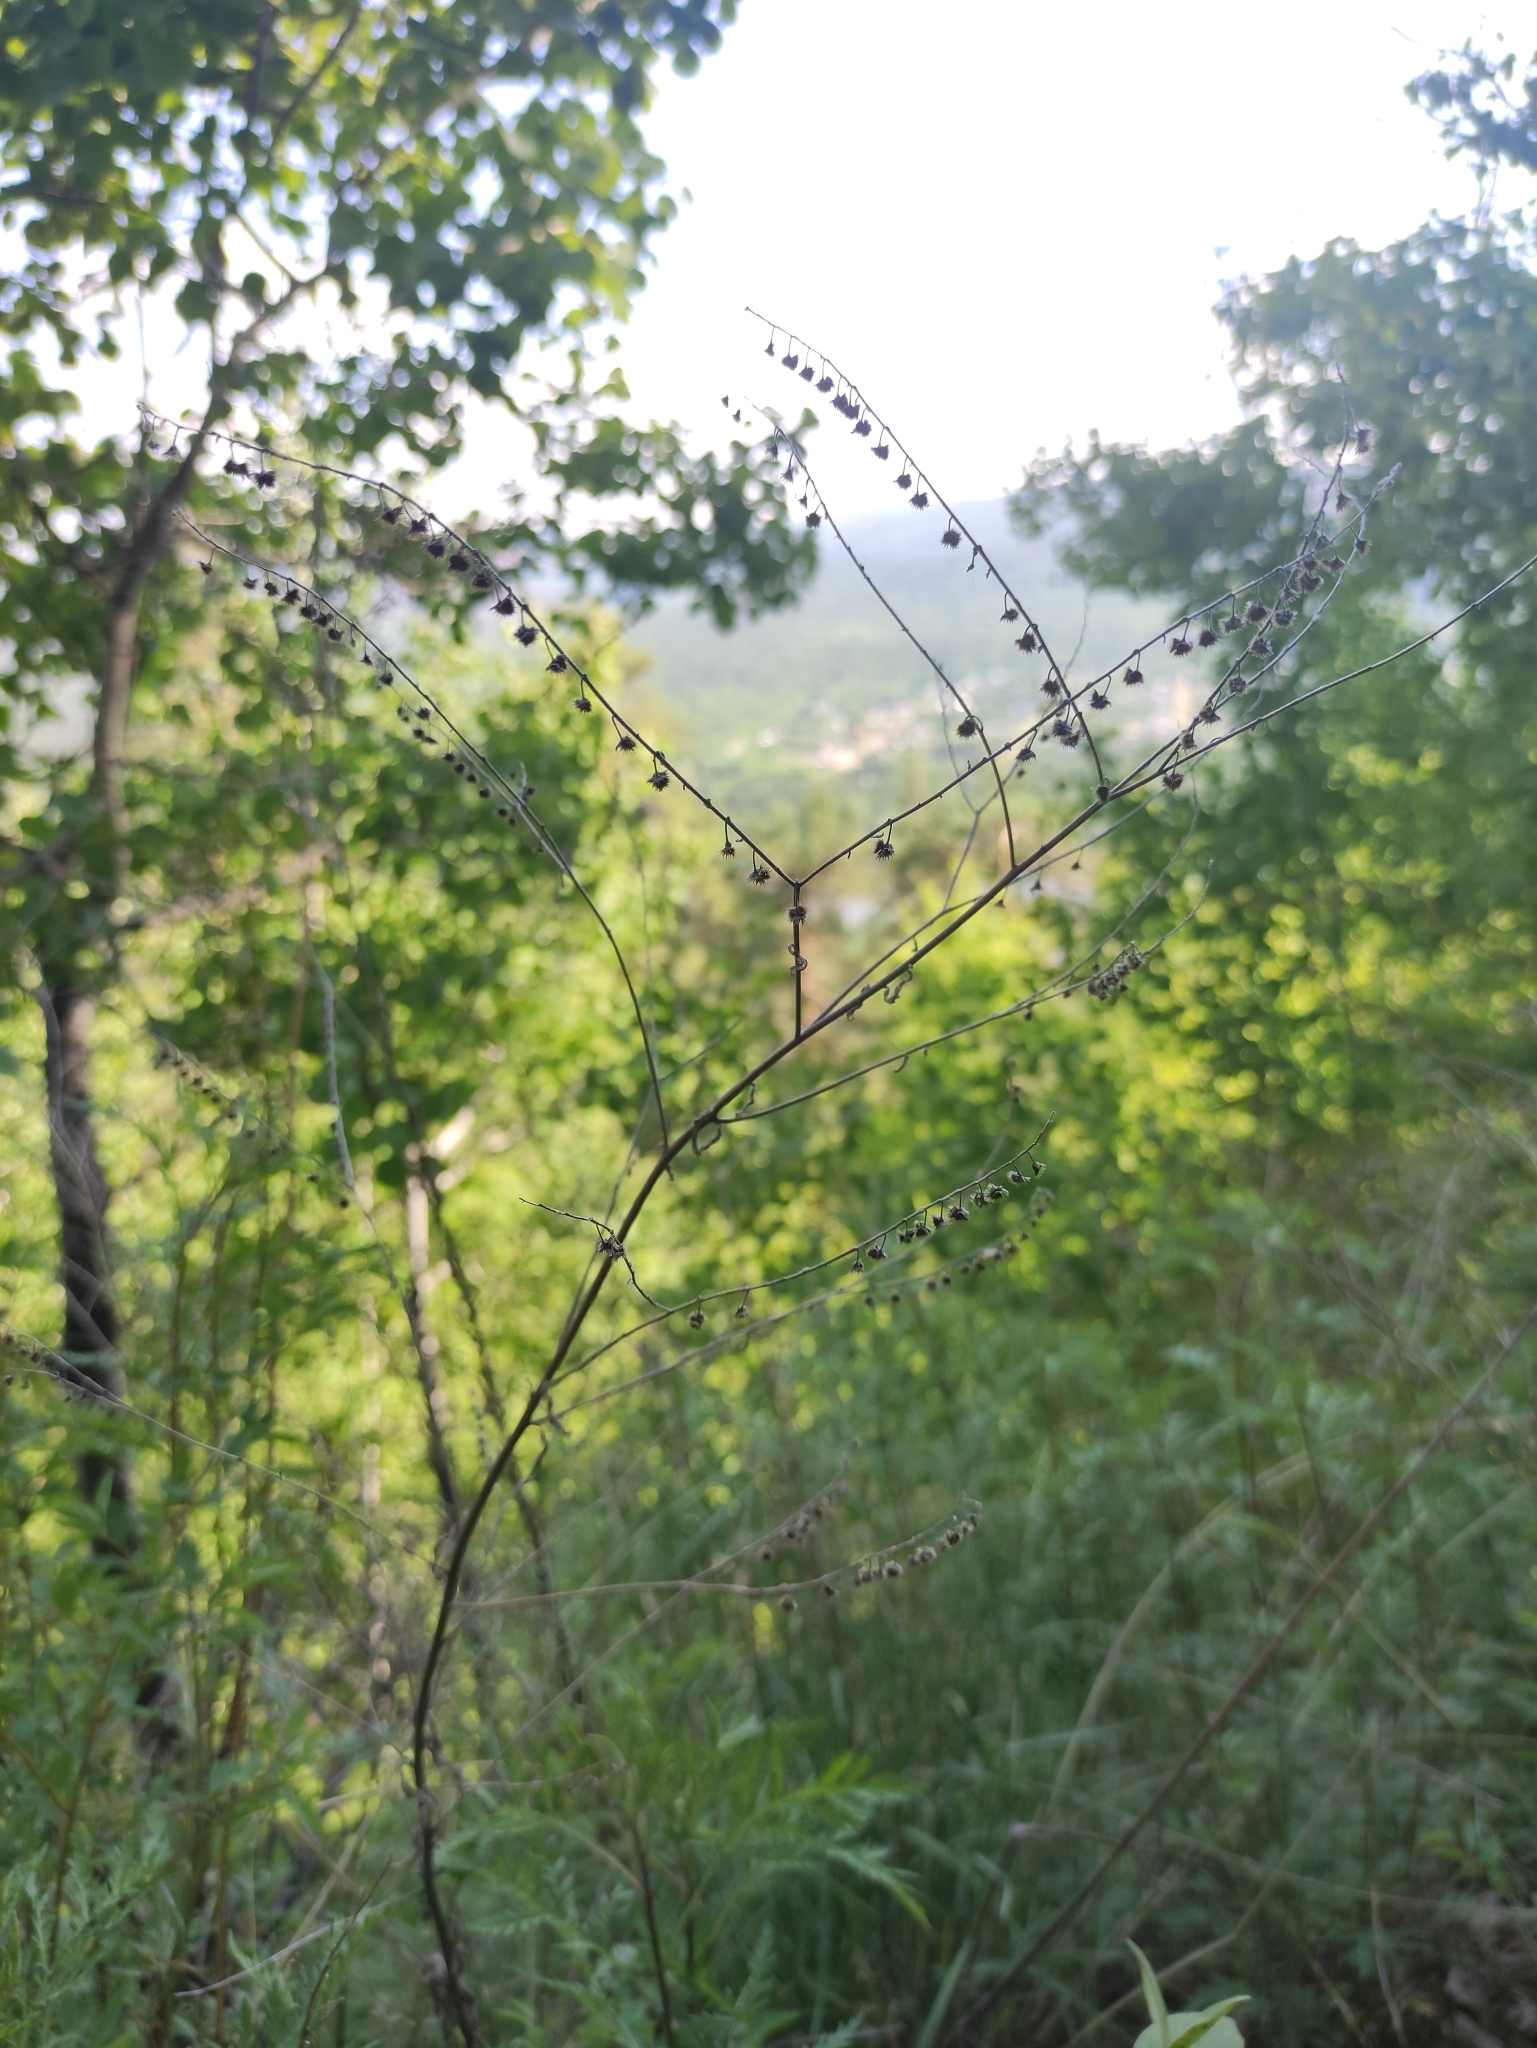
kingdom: Plantae
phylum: Tracheophyta
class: Magnoliopsida
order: Boraginales
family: Boraginaceae
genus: Hackelia
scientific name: Hackelia deflexa
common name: Nodding stickseed
